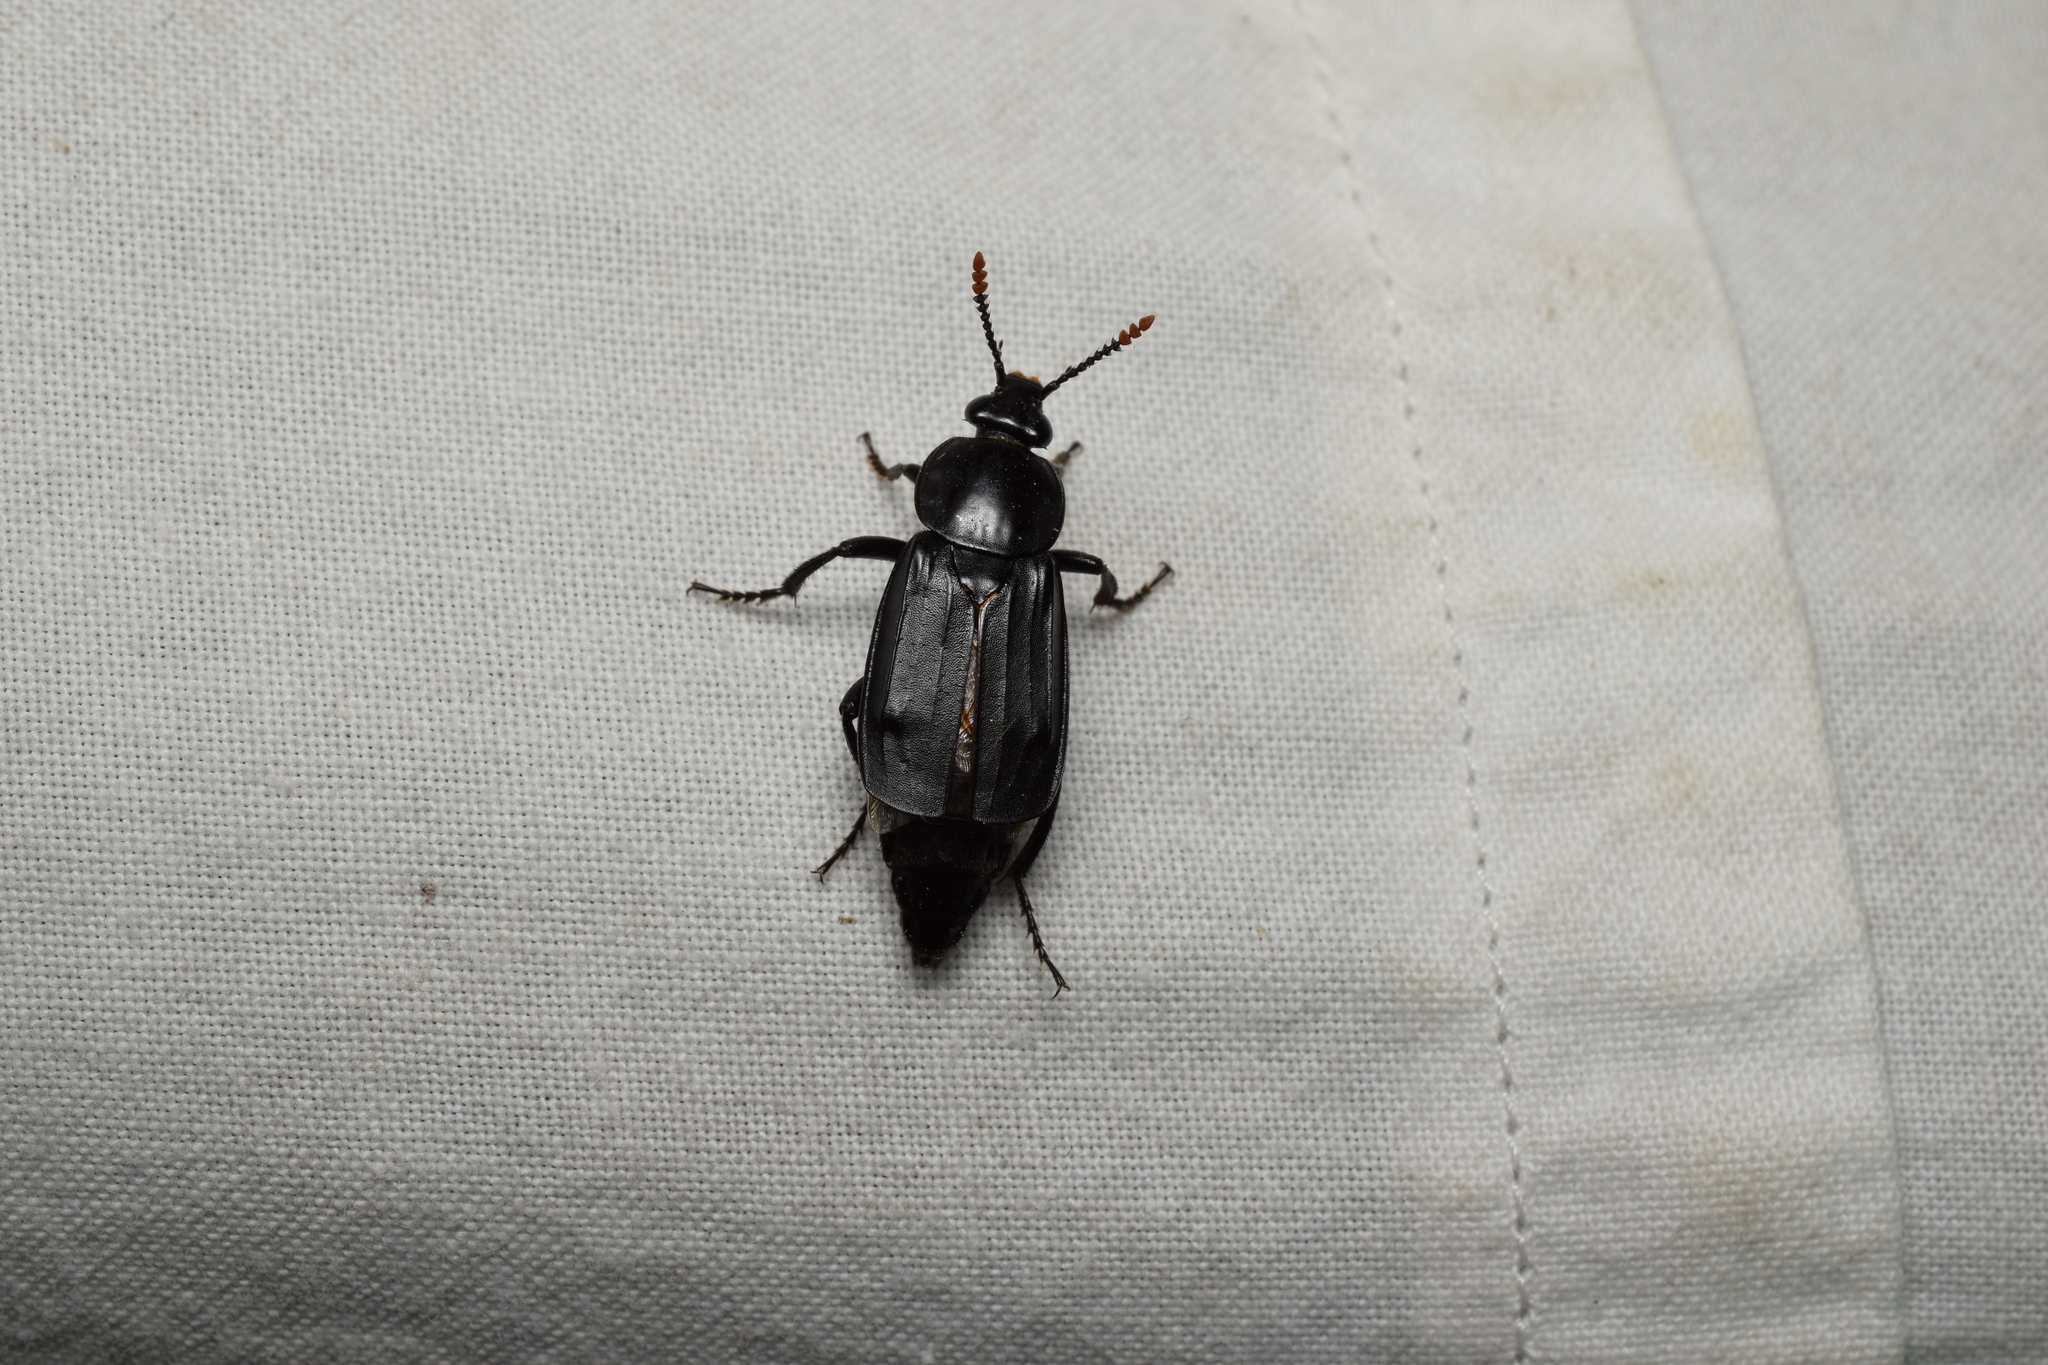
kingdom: Animalia
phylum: Arthropoda
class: Insecta
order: Coleoptera
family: Staphylinidae
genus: Necrodes
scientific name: Necrodes littoralis
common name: Shore sexton beetle
